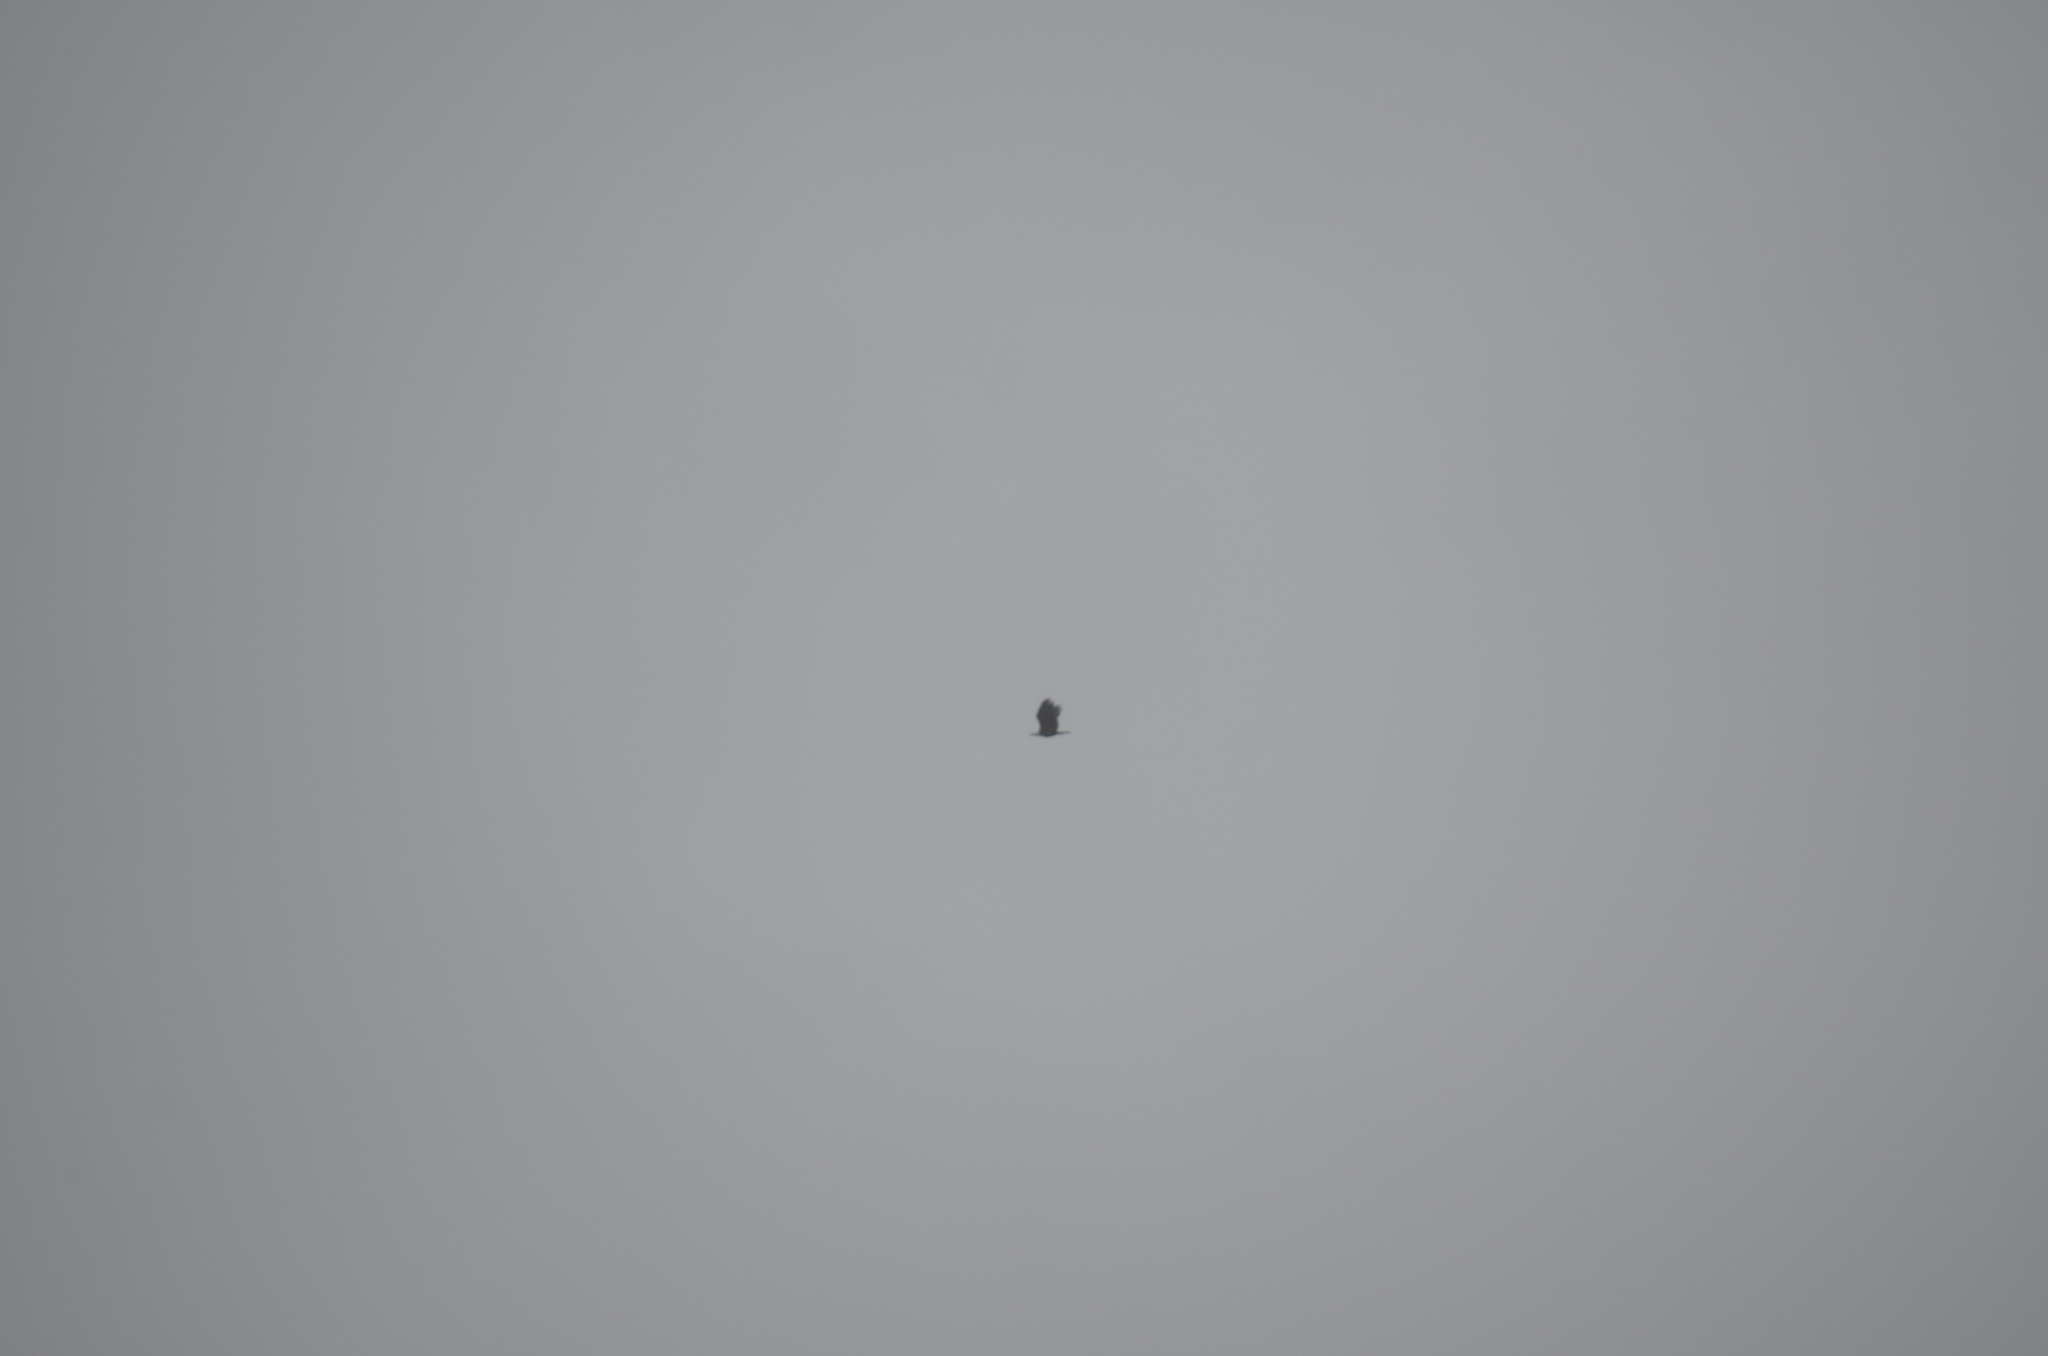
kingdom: Animalia
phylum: Chordata
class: Aves
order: Accipitriformes
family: Accipitridae
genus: Haliaeetus
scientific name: Haliaeetus leucocephalus
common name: Bald eagle
